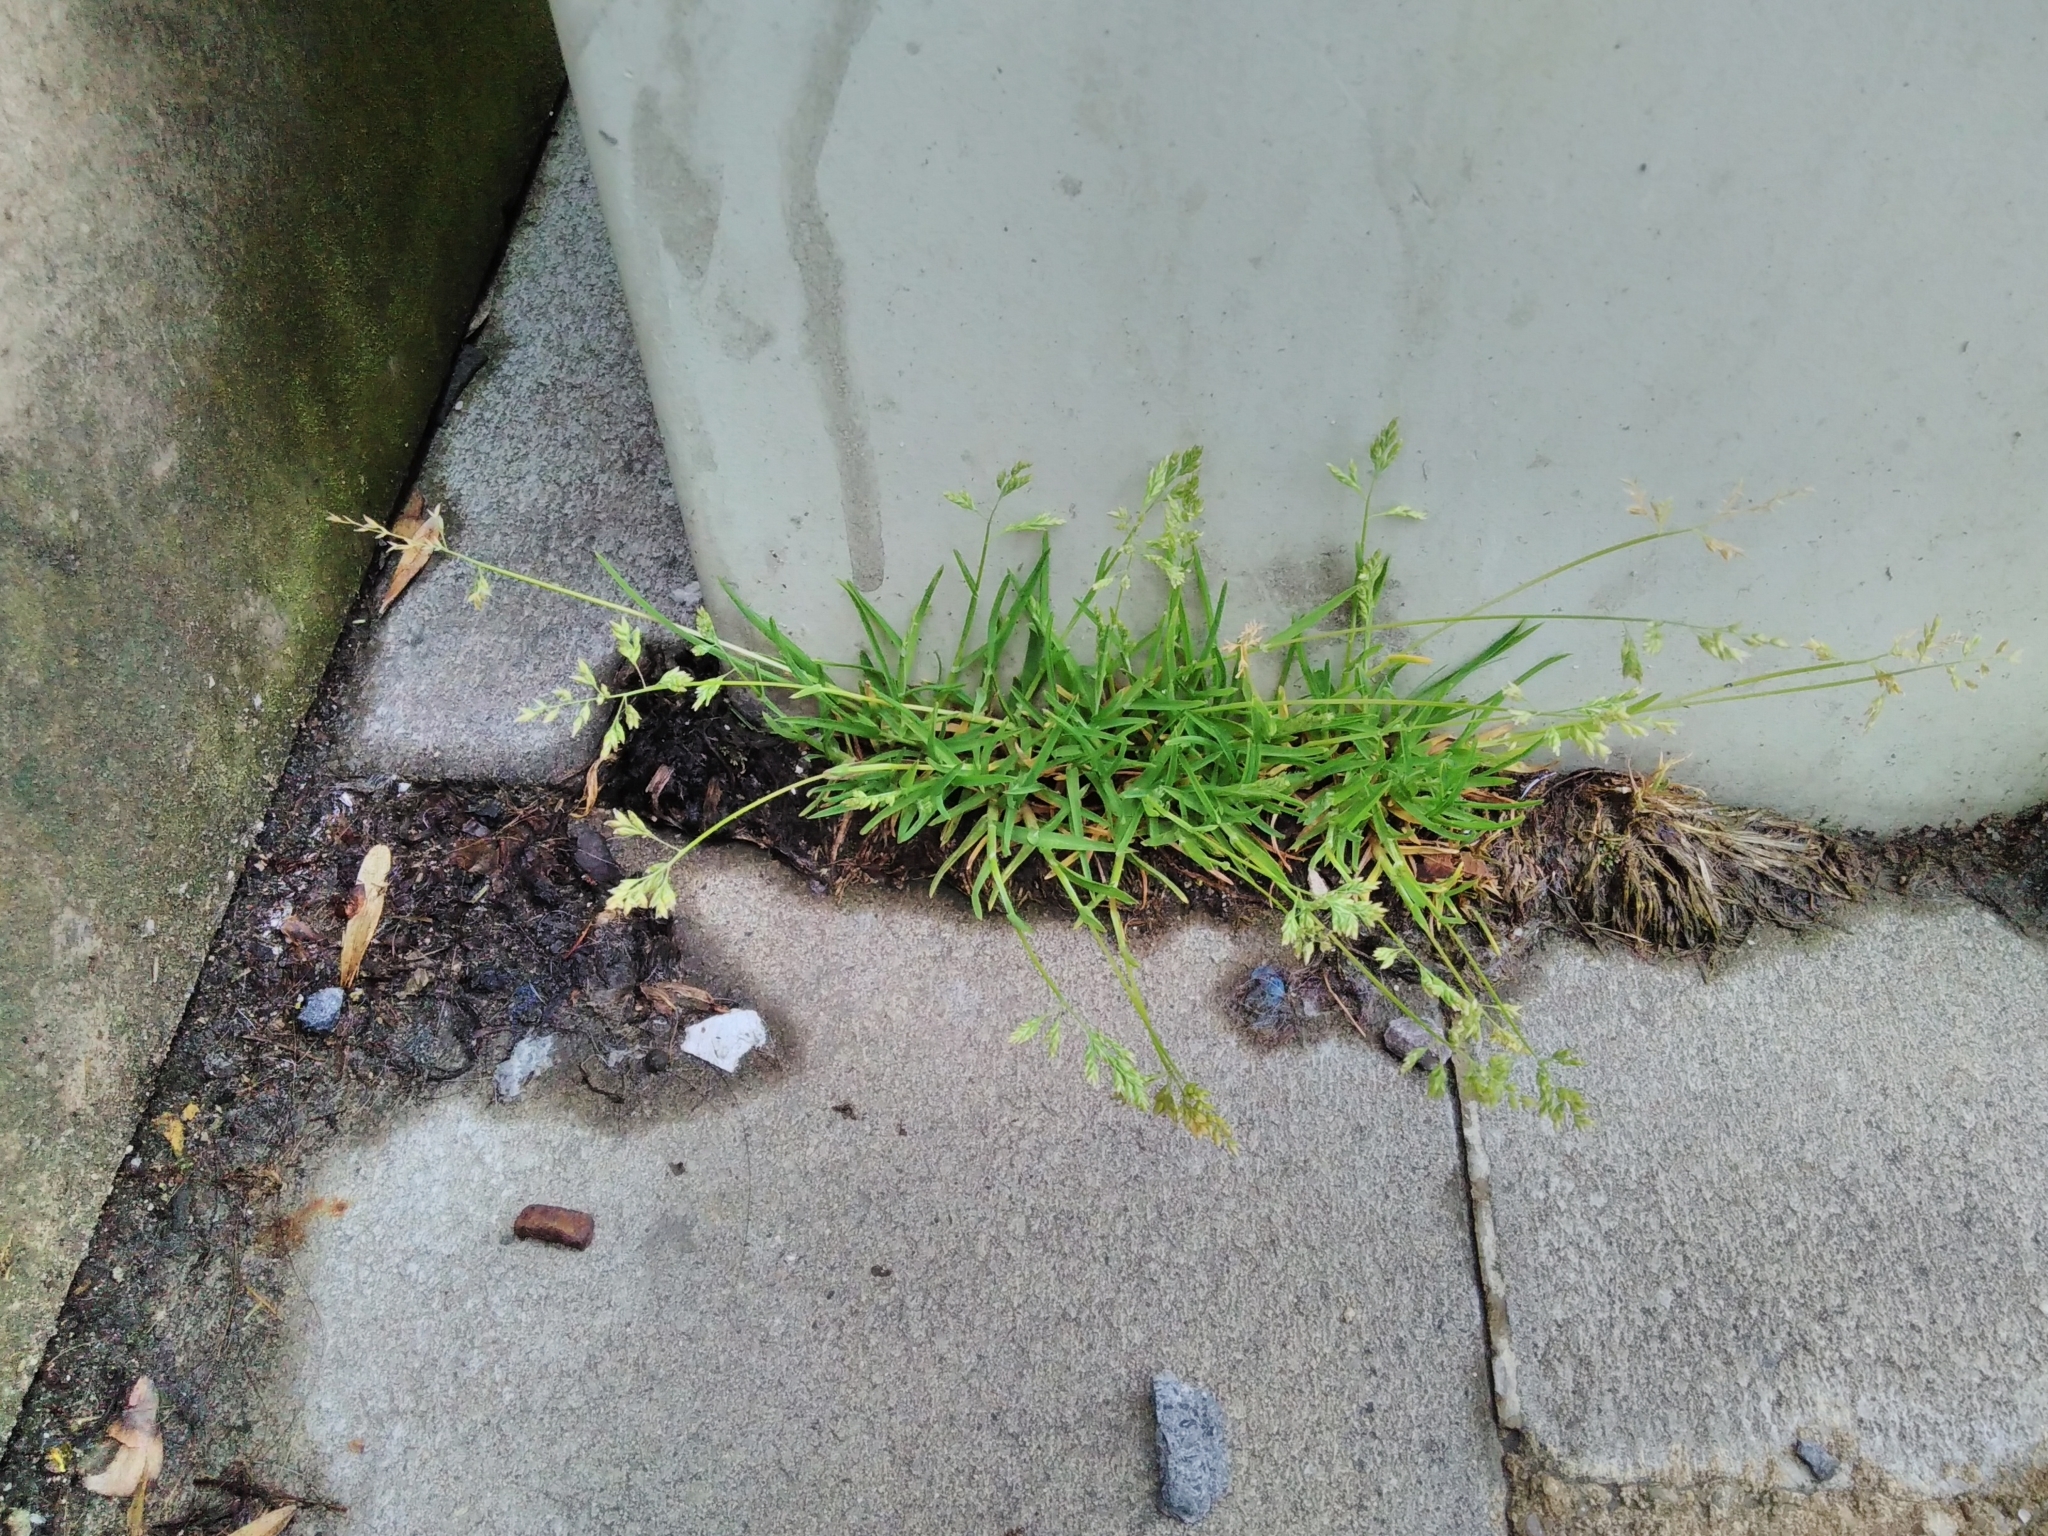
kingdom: Plantae
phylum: Tracheophyta
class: Liliopsida
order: Poales
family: Poaceae
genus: Poa
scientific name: Poa annua
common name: Annual bluegrass
